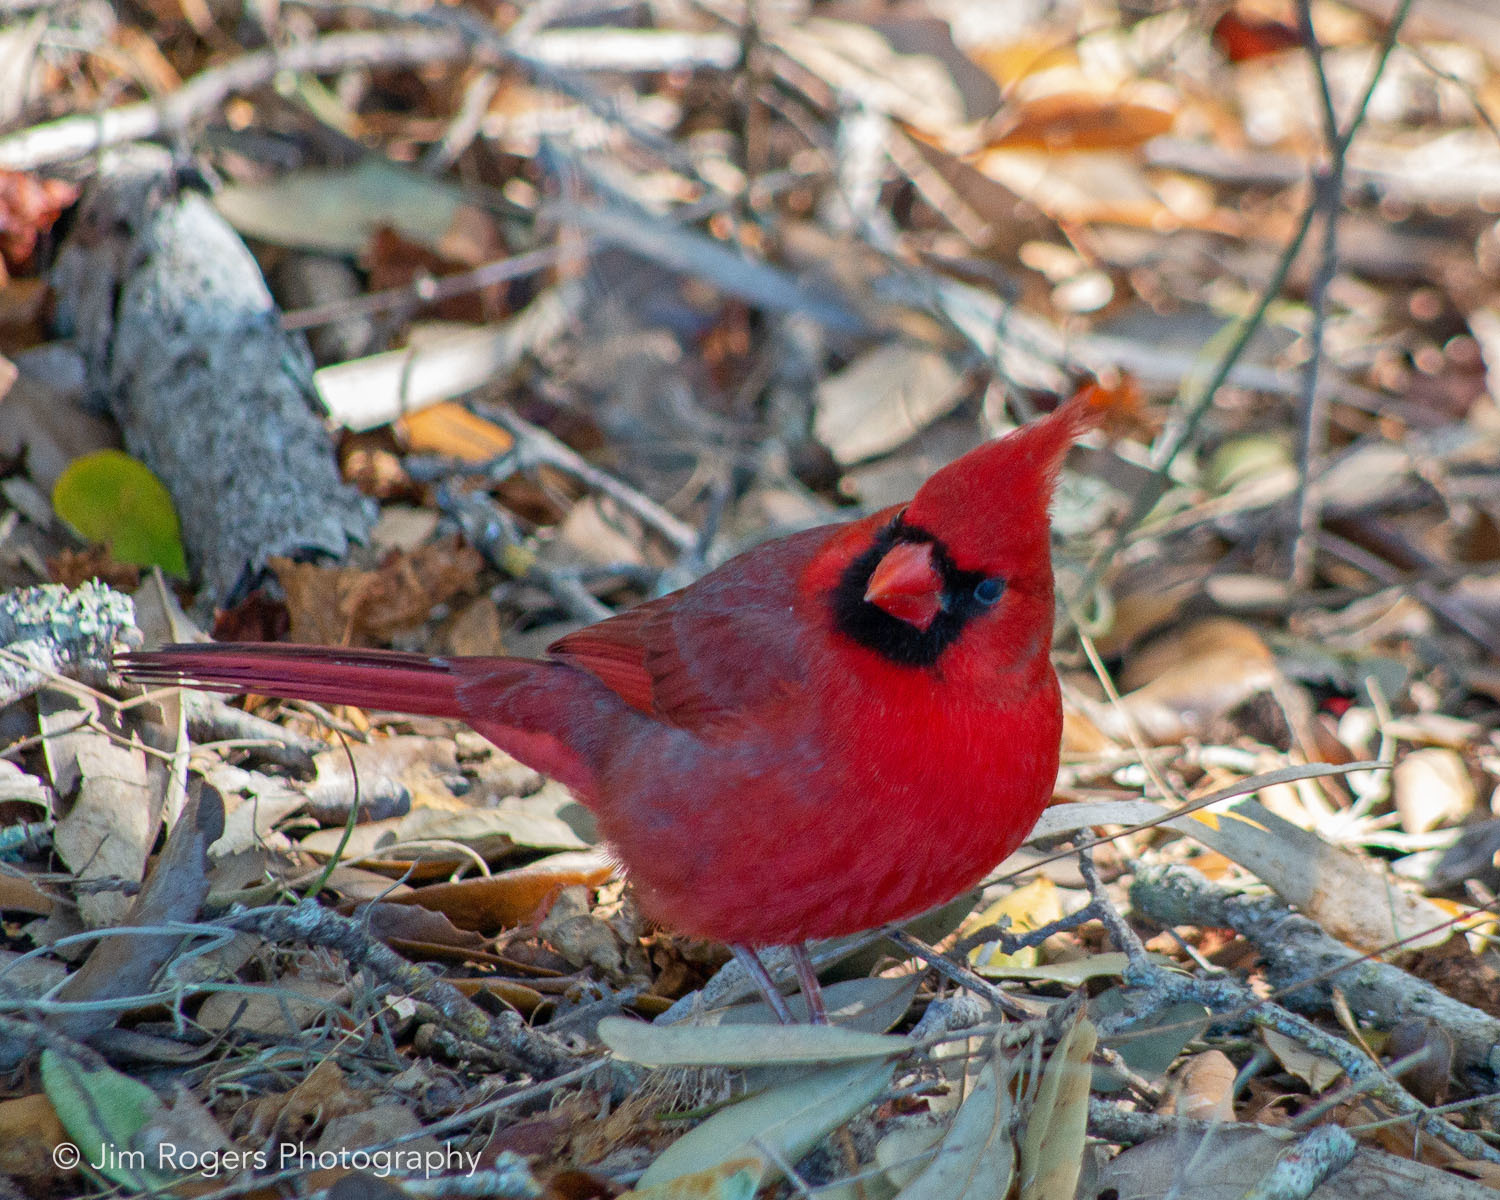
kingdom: Animalia
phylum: Chordata
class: Aves
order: Passeriformes
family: Cardinalidae
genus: Cardinalis
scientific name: Cardinalis cardinalis
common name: Northern cardinal
